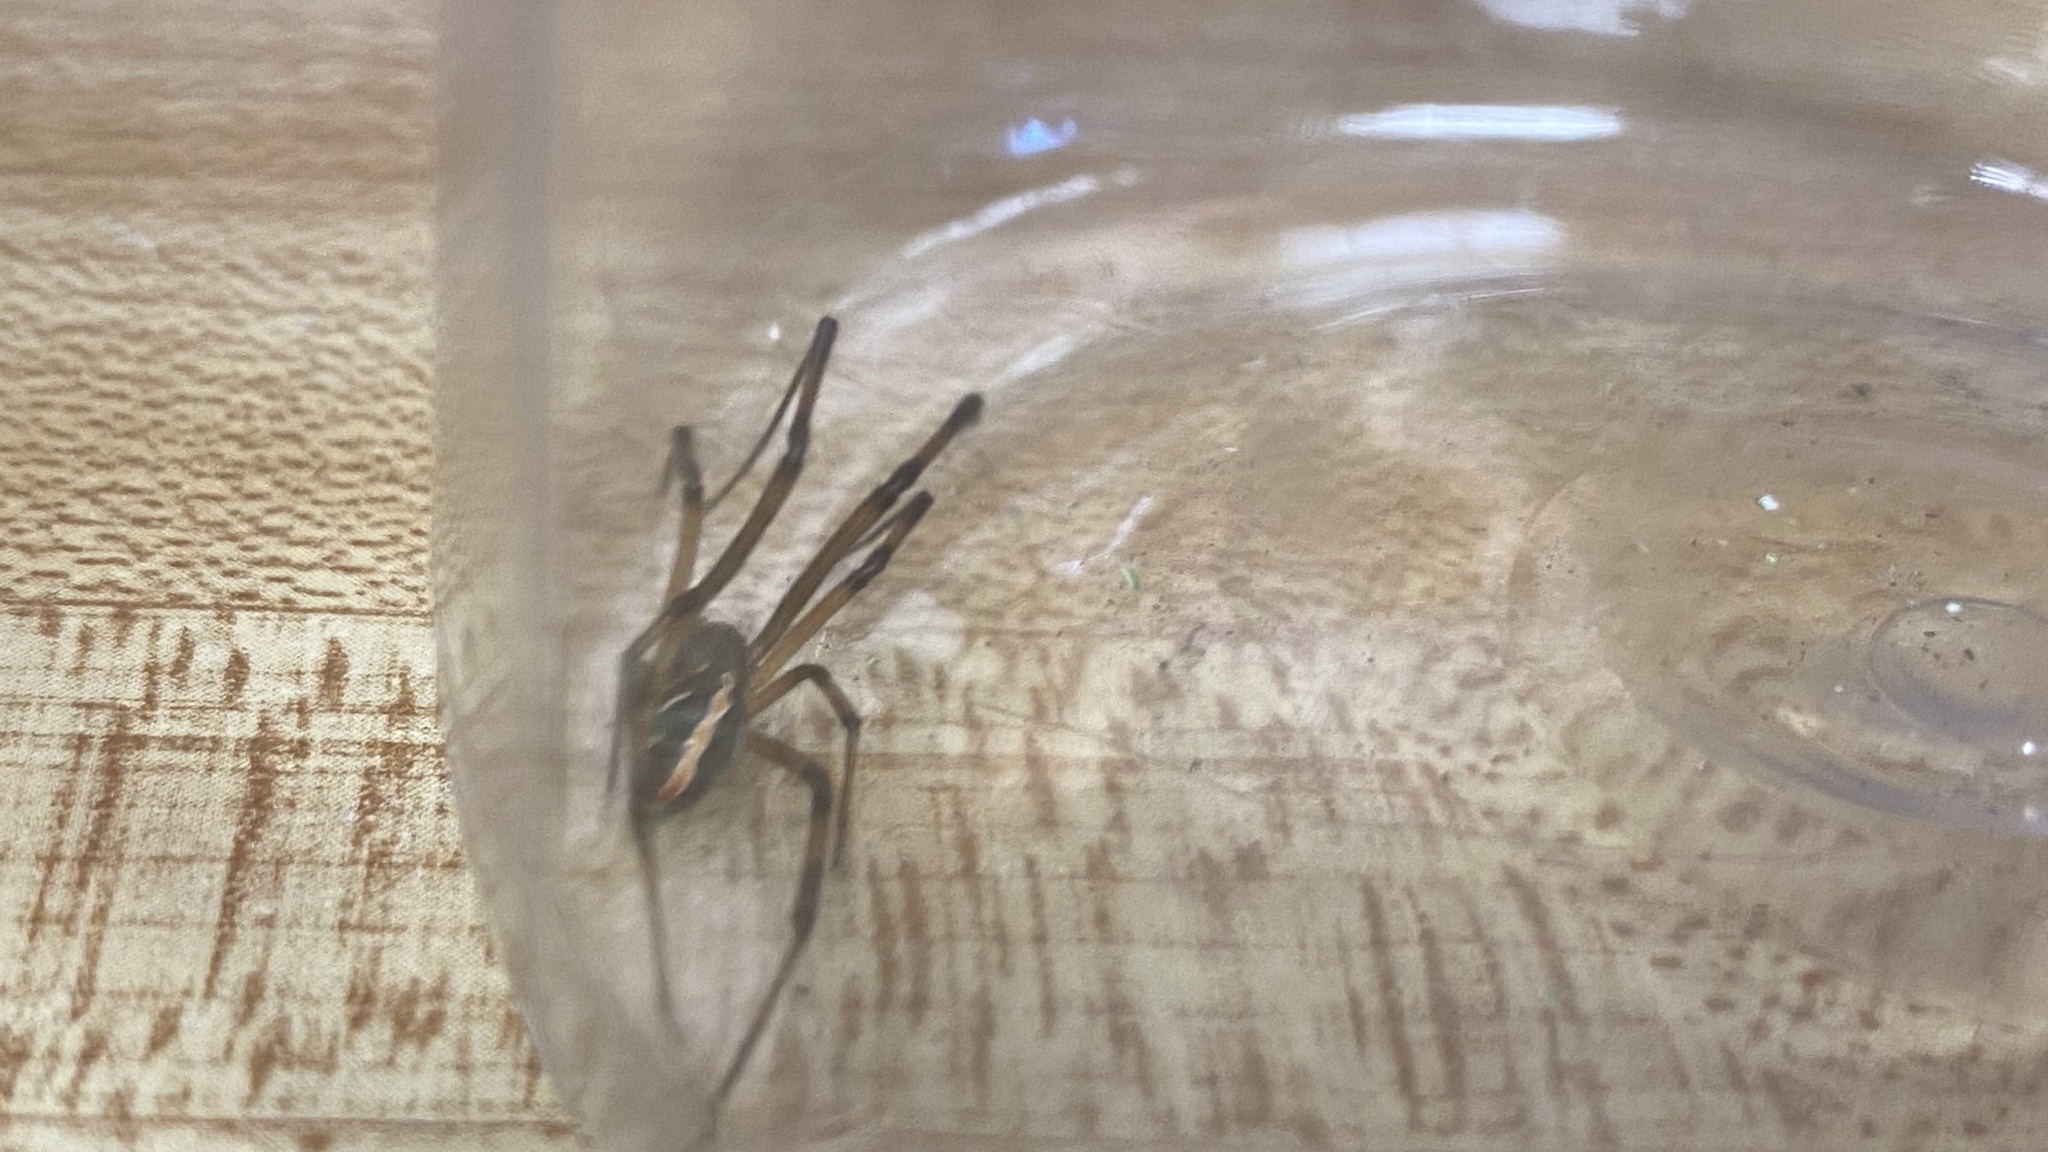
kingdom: Animalia
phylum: Arthropoda
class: Arachnida
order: Araneae
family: Theridiidae
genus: Latrodectus
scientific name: Latrodectus hesperus
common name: Western black widow
